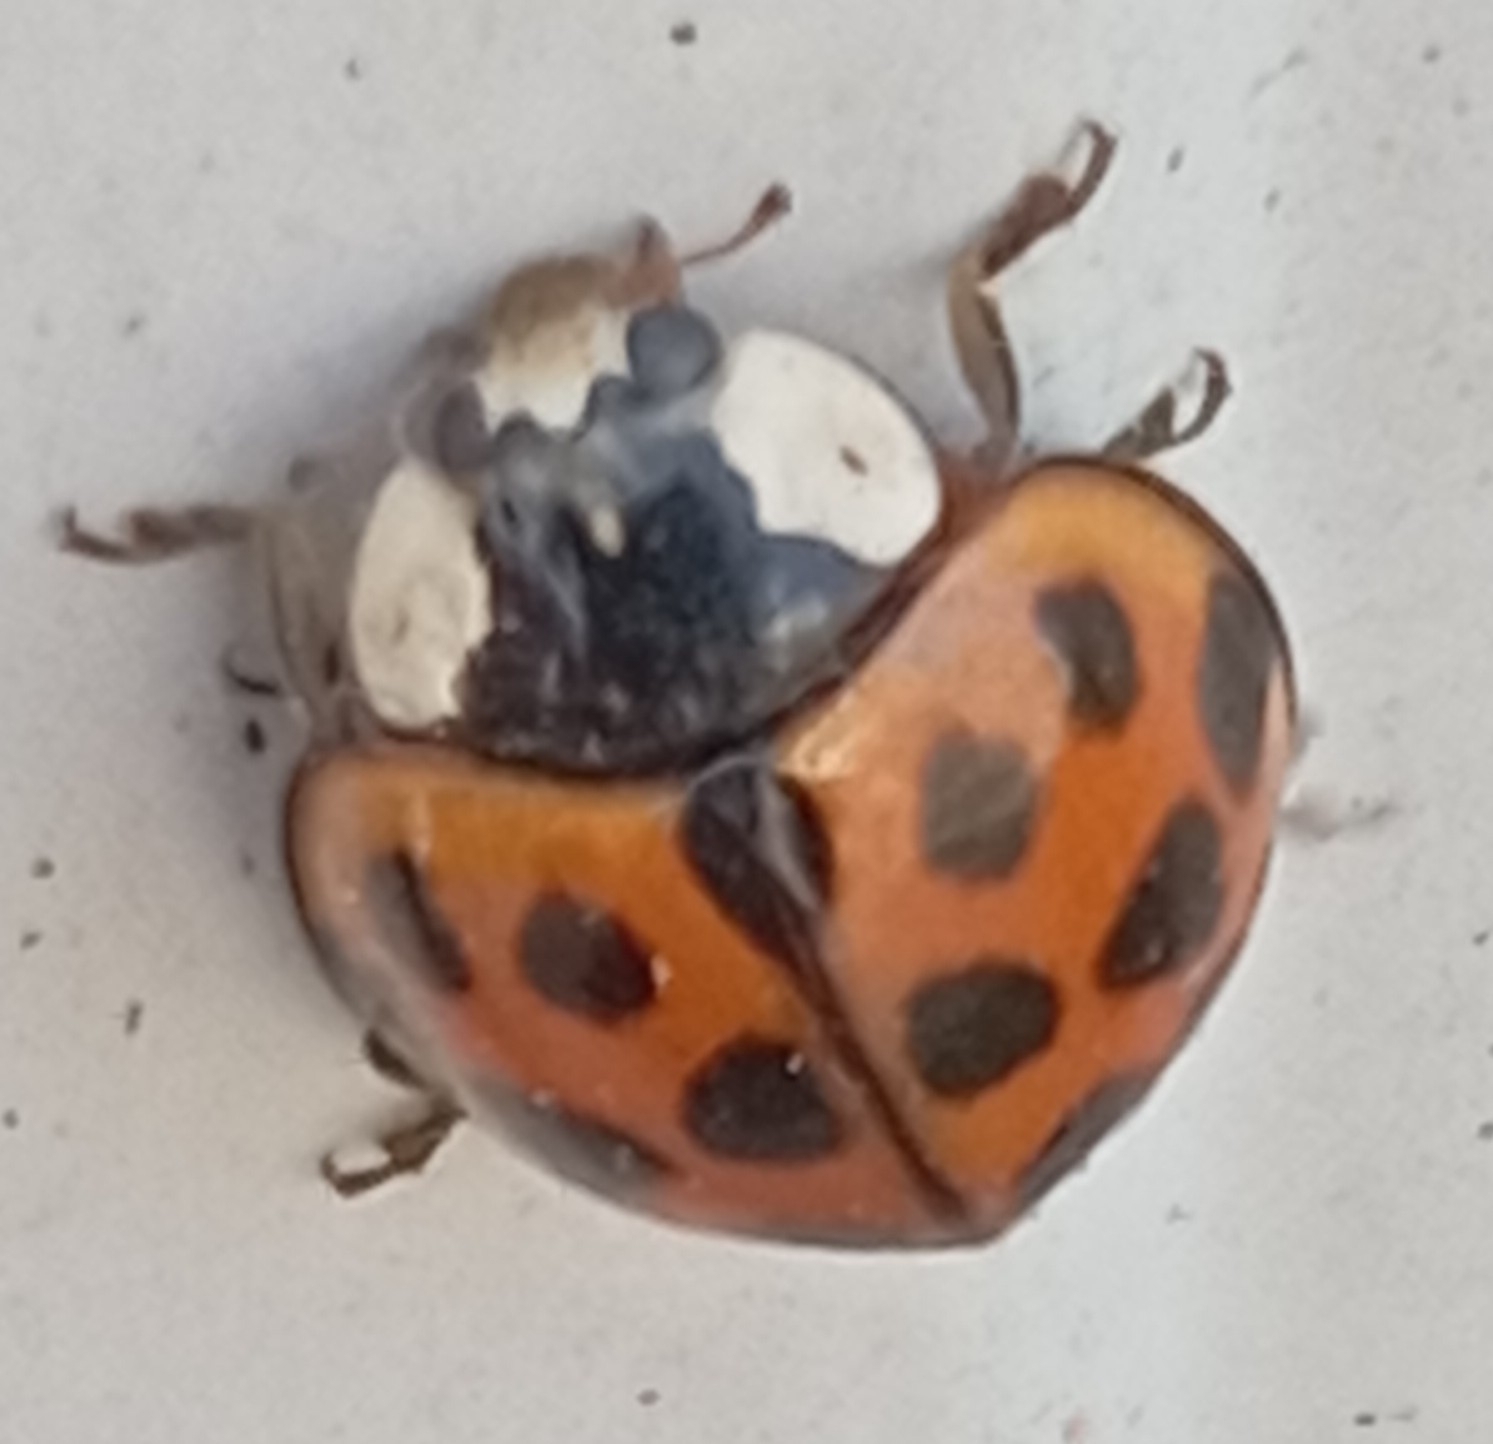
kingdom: Animalia
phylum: Arthropoda
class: Insecta
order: Coleoptera
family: Coccinellidae
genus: Harmonia
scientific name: Harmonia axyridis
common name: Harlequin ladybird
